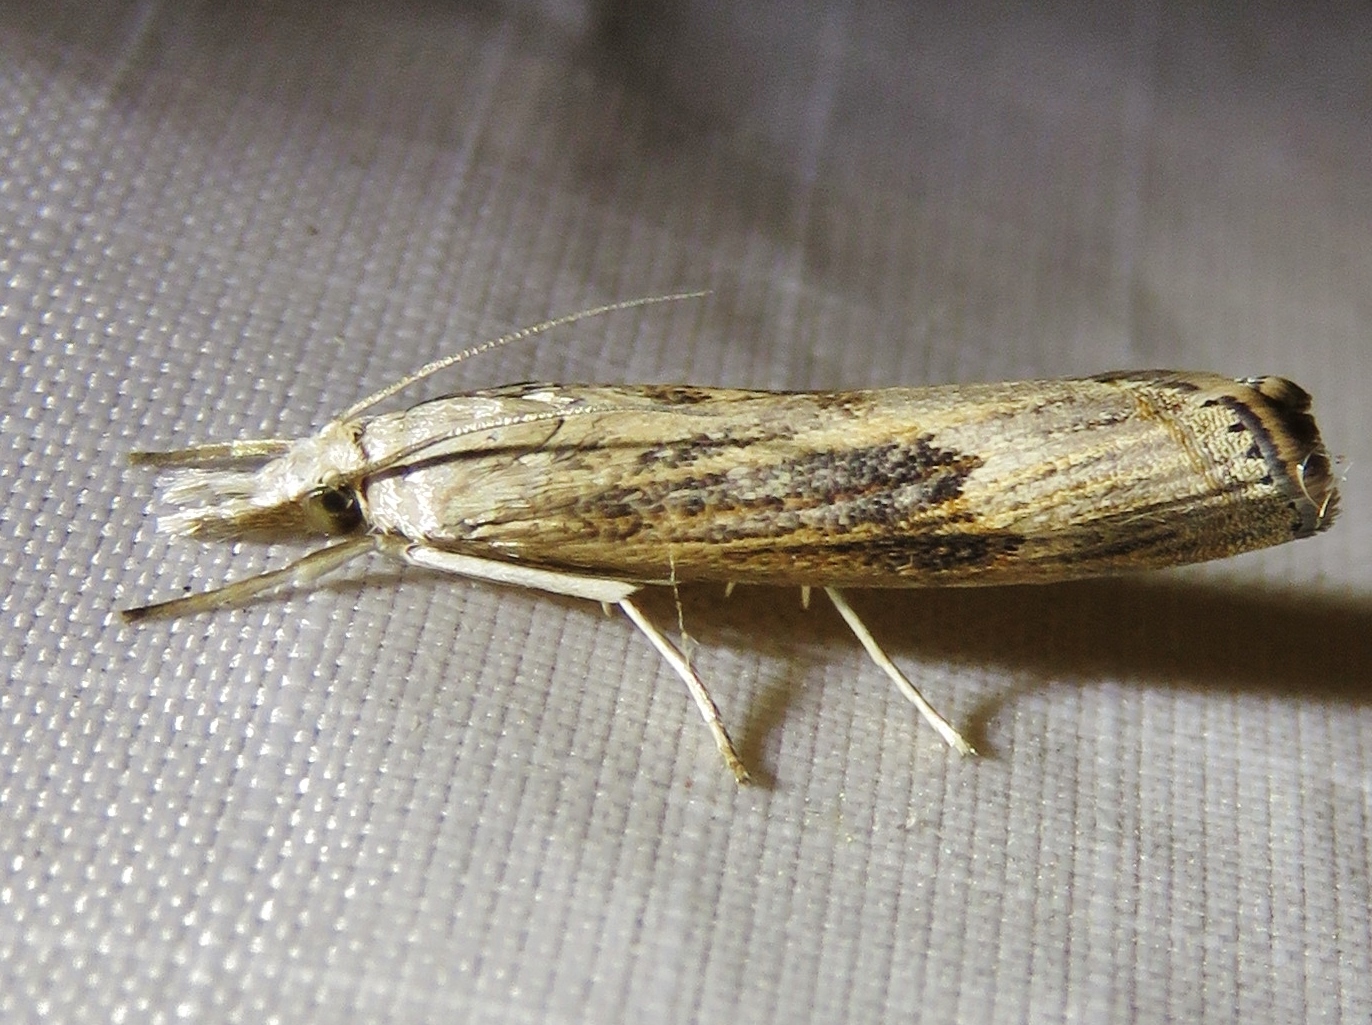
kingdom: Animalia
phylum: Arthropoda
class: Insecta
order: Lepidoptera
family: Crambidae
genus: Parapediasia
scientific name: Parapediasia teterellus
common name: Bluegrass webworm moth
